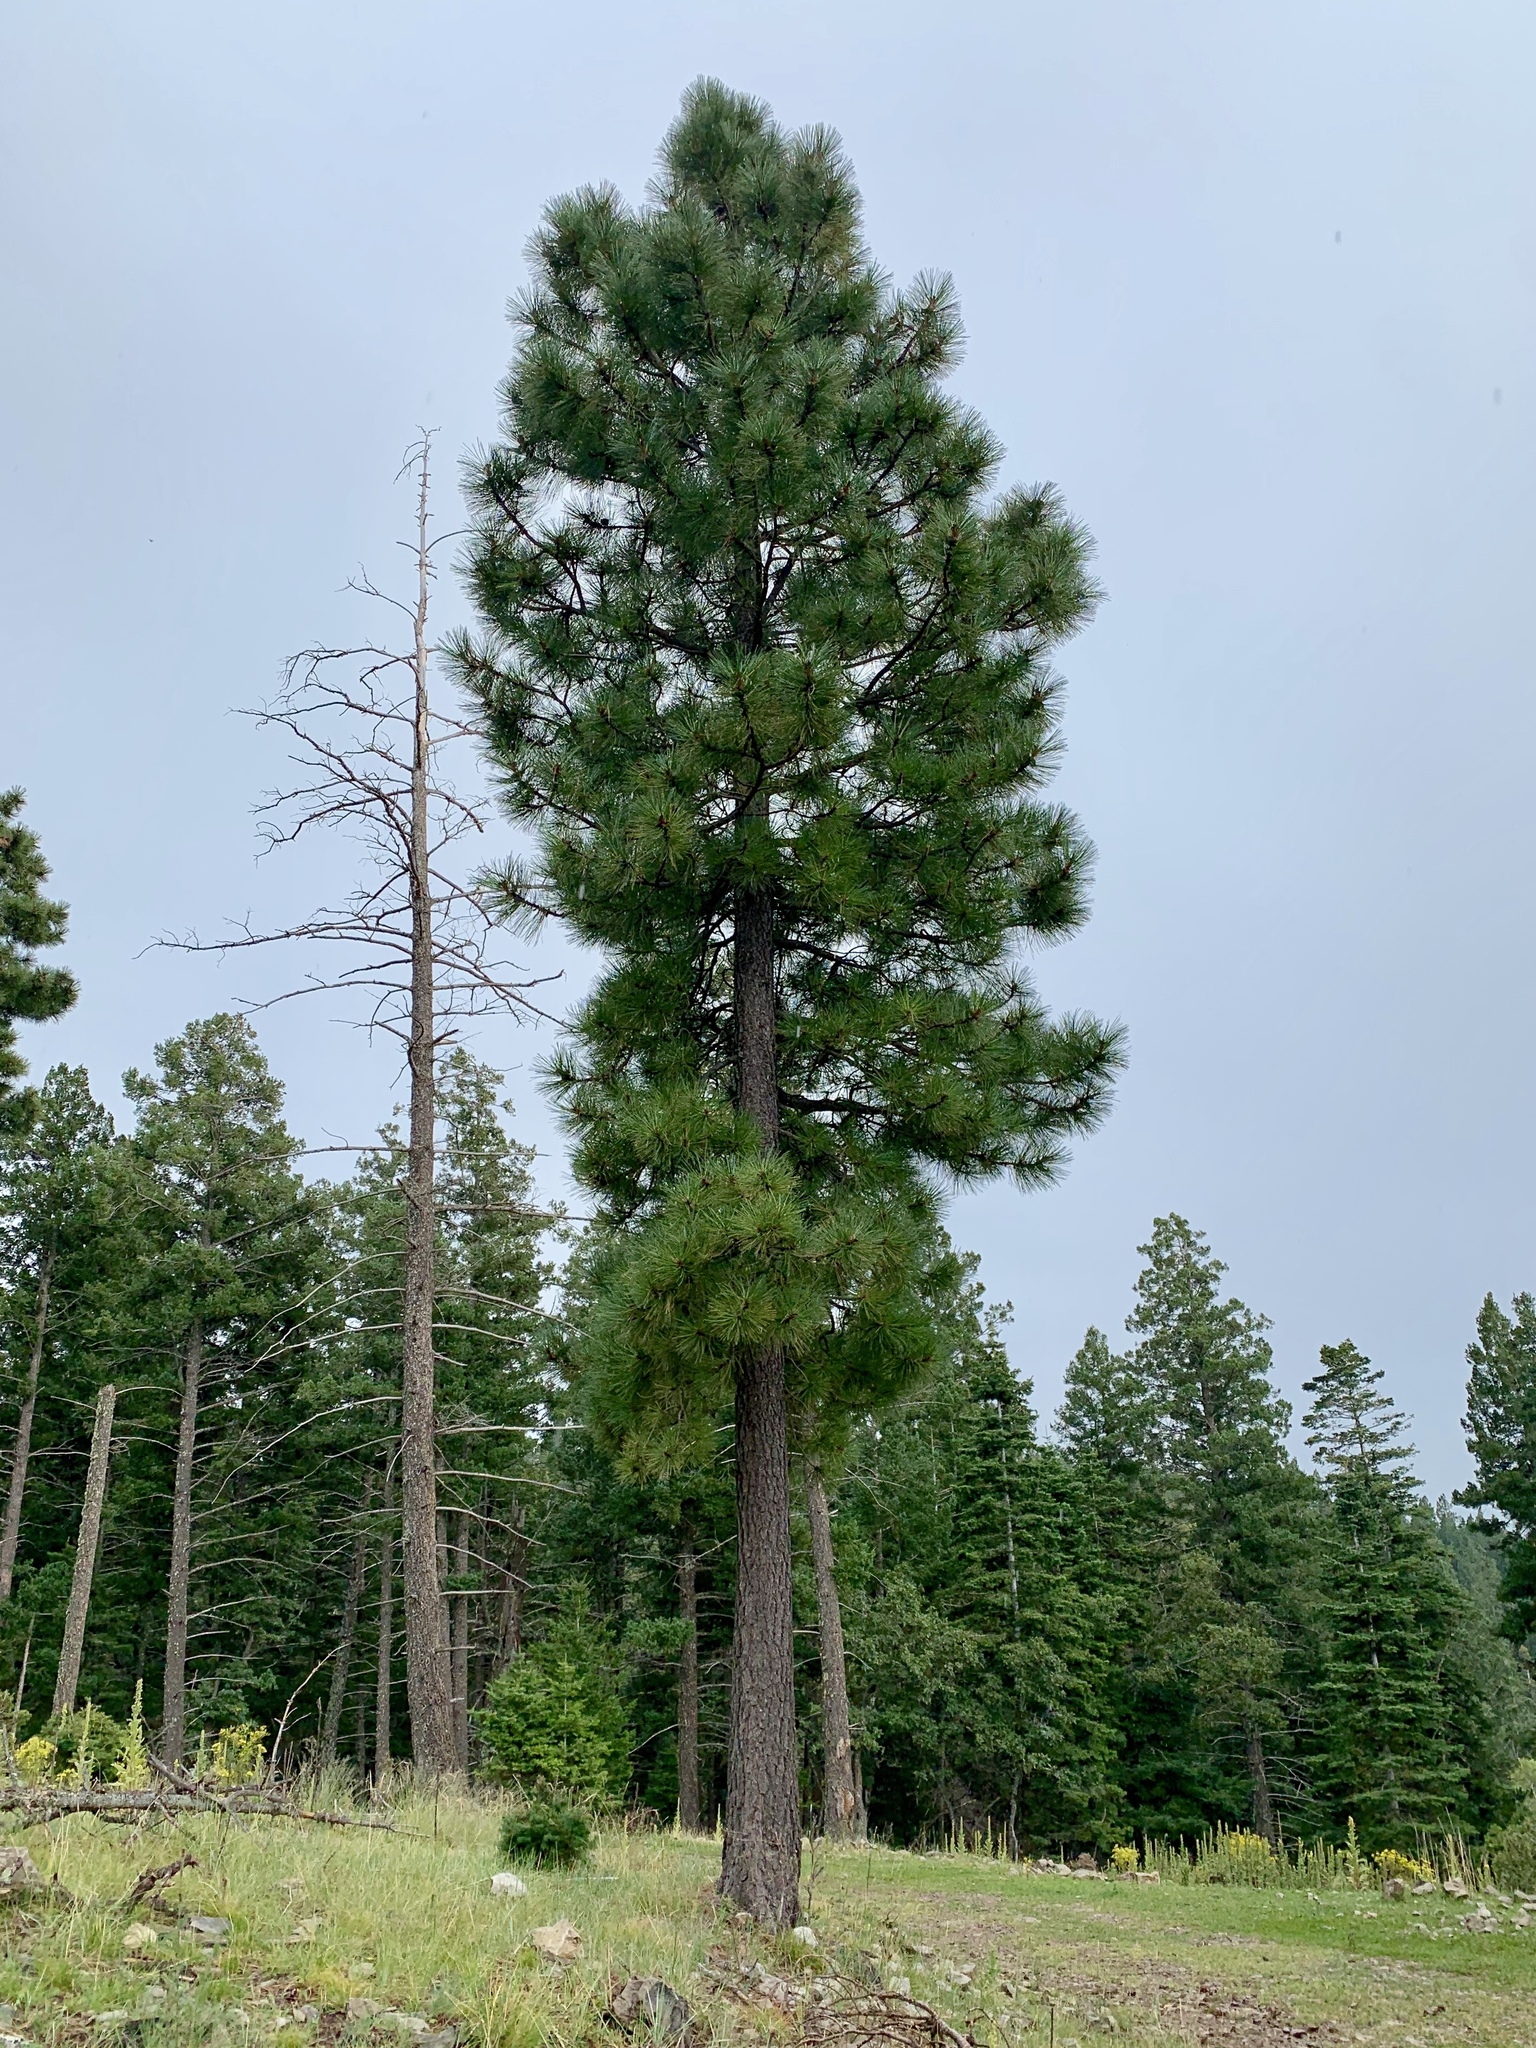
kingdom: Plantae
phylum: Tracheophyta
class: Pinopsida
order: Pinales
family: Pinaceae
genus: Pinus
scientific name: Pinus ponderosa
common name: Western yellow-pine
